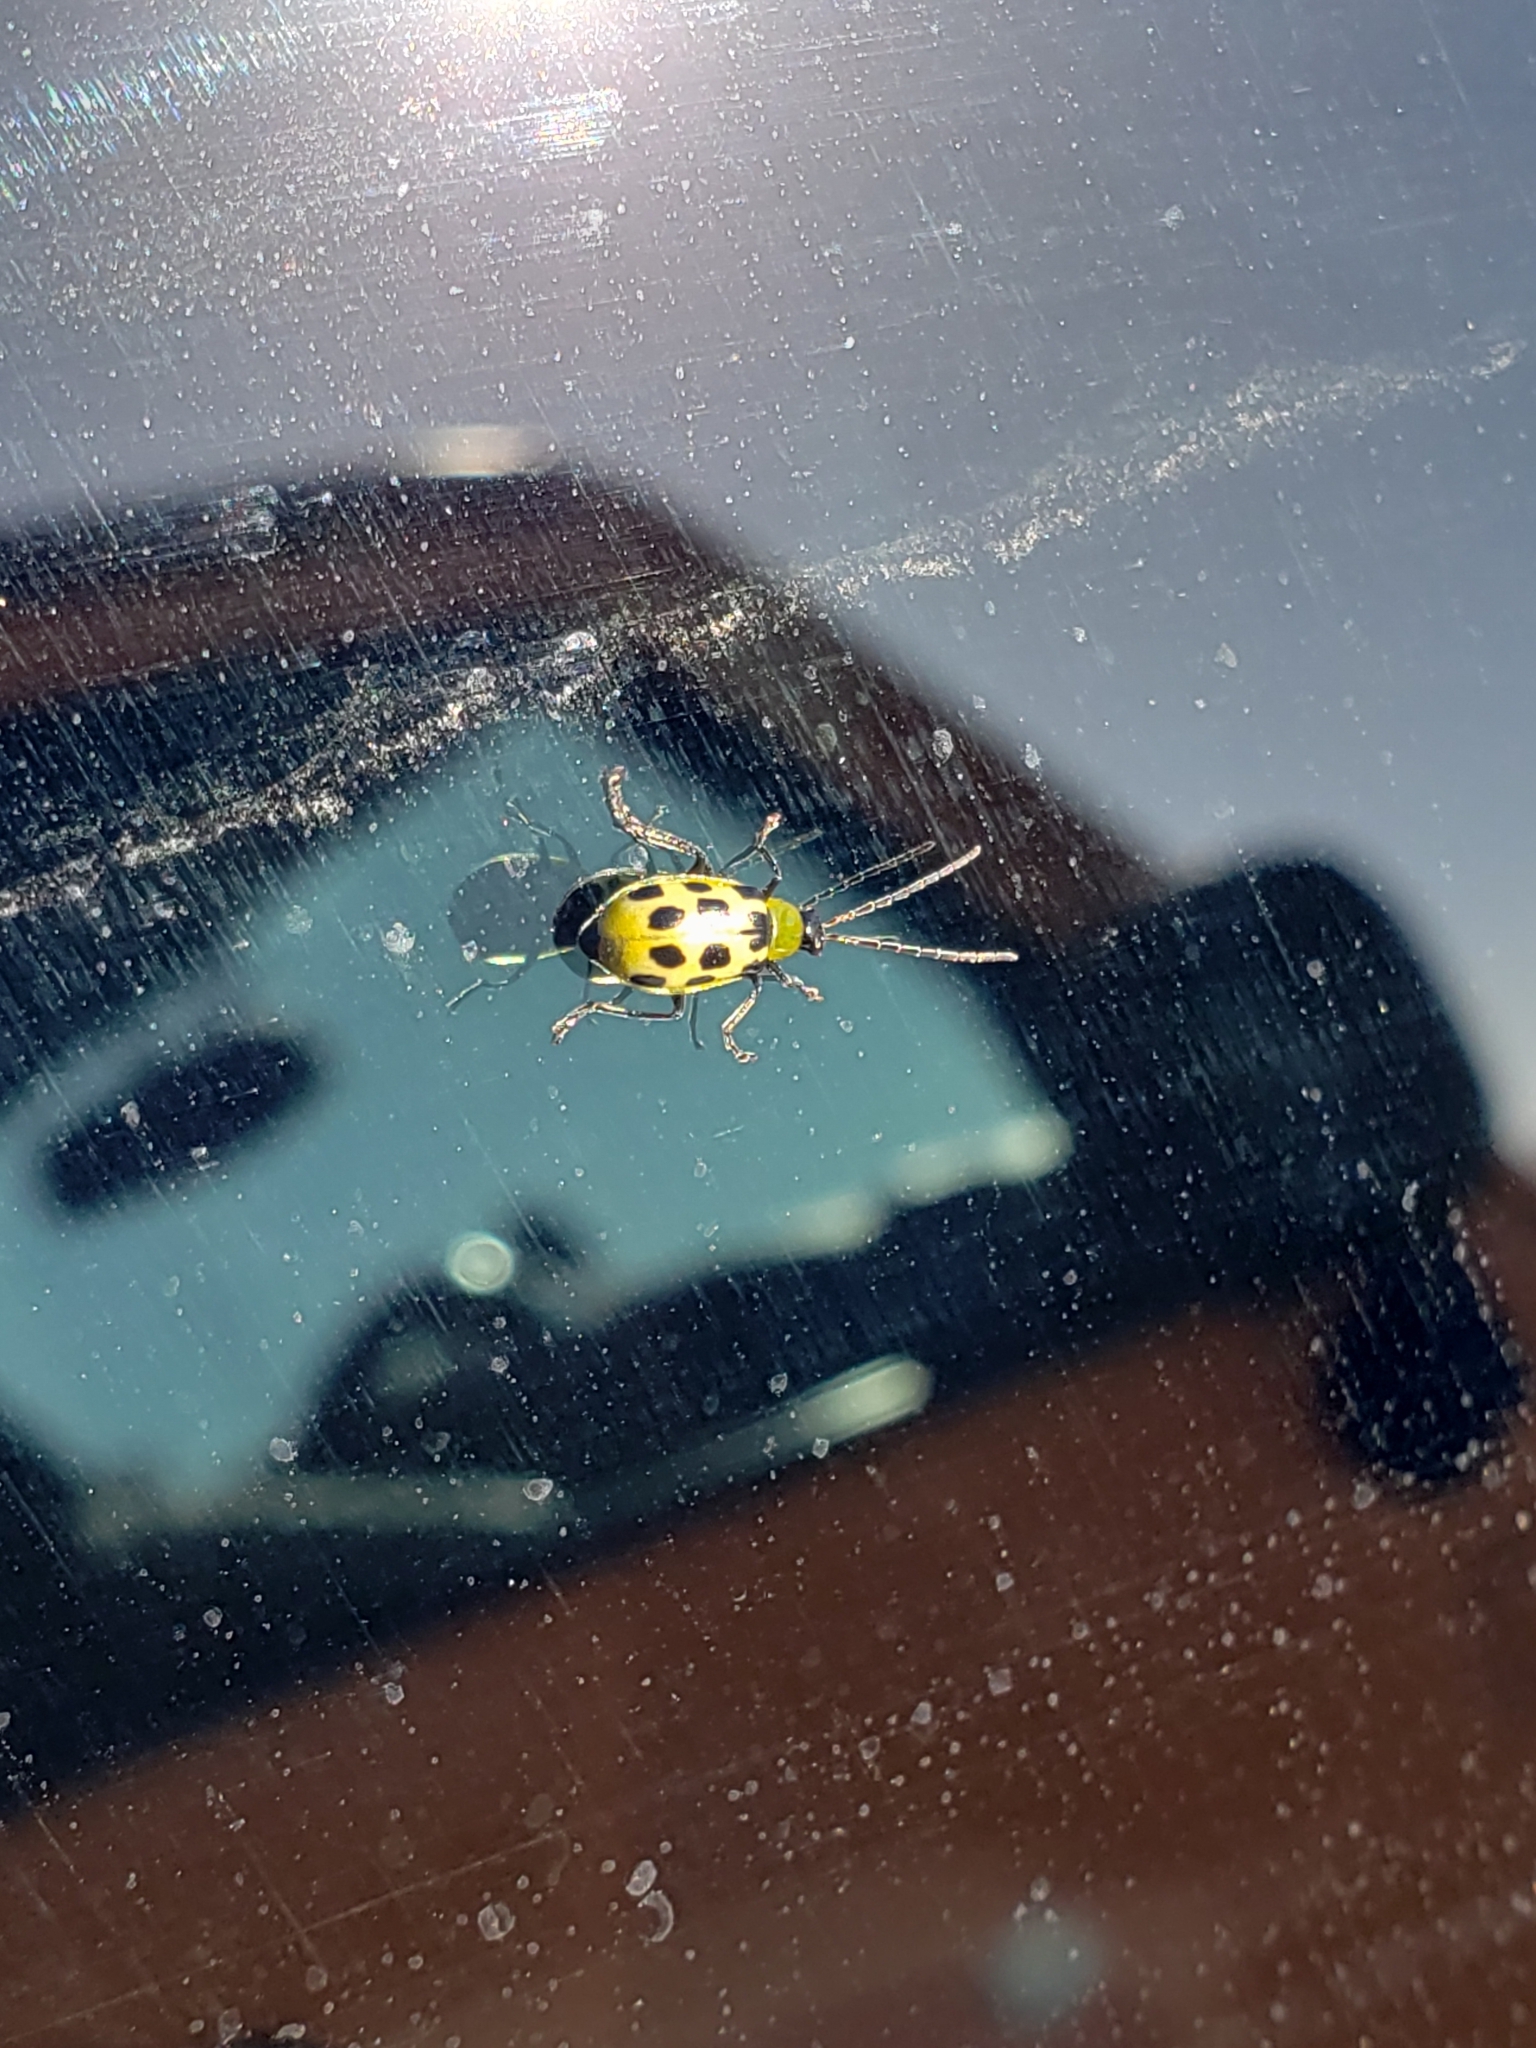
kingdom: Animalia
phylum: Arthropoda
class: Insecta
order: Coleoptera
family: Chrysomelidae
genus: Diabrotica
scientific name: Diabrotica undecimpunctata
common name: Spotted cucumber beetle
